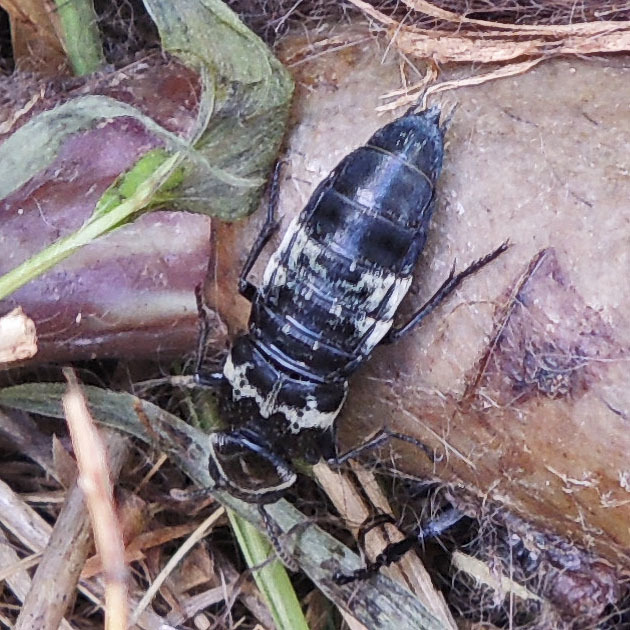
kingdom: Animalia
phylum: Arthropoda
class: Insecta
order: Coleoptera
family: Staphylinidae
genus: Creophilus
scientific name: Creophilus maxillosus
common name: Hairy rove beetle
